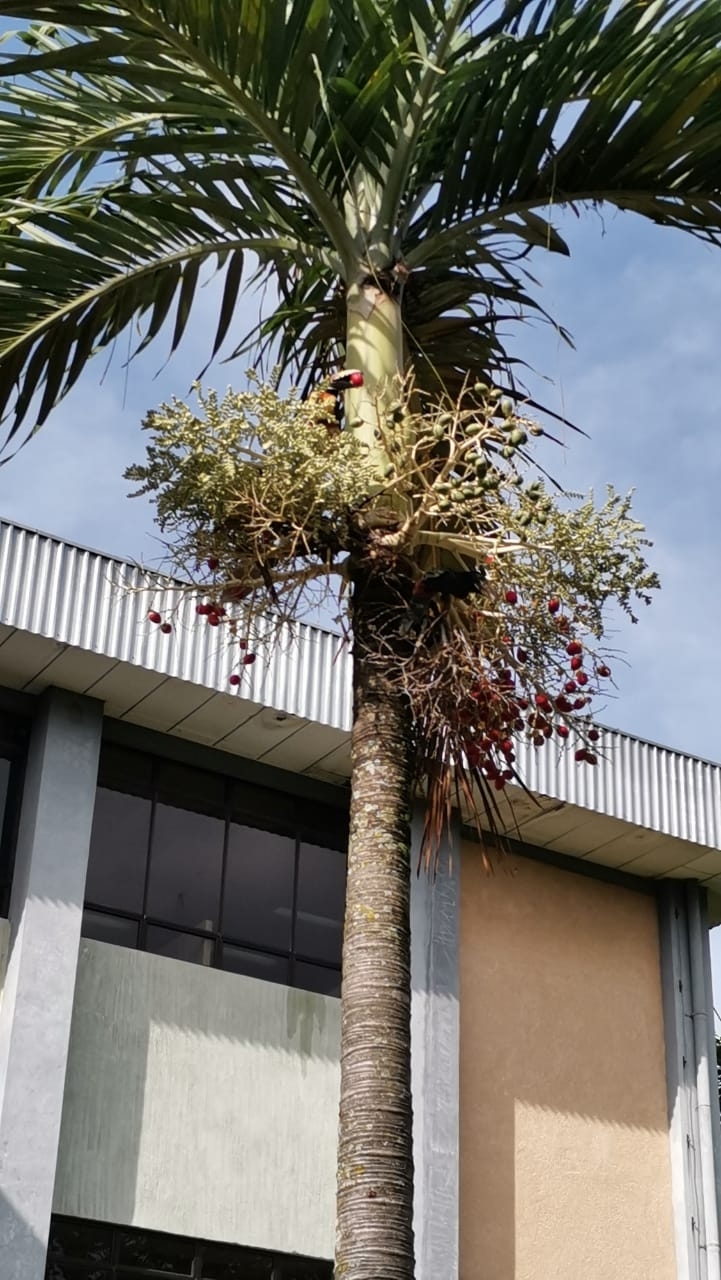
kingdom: Animalia
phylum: Chordata
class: Aves
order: Piciformes
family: Ramphastidae
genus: Pteroglossus
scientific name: Pteroglossus torquatus
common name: Collared aracari
